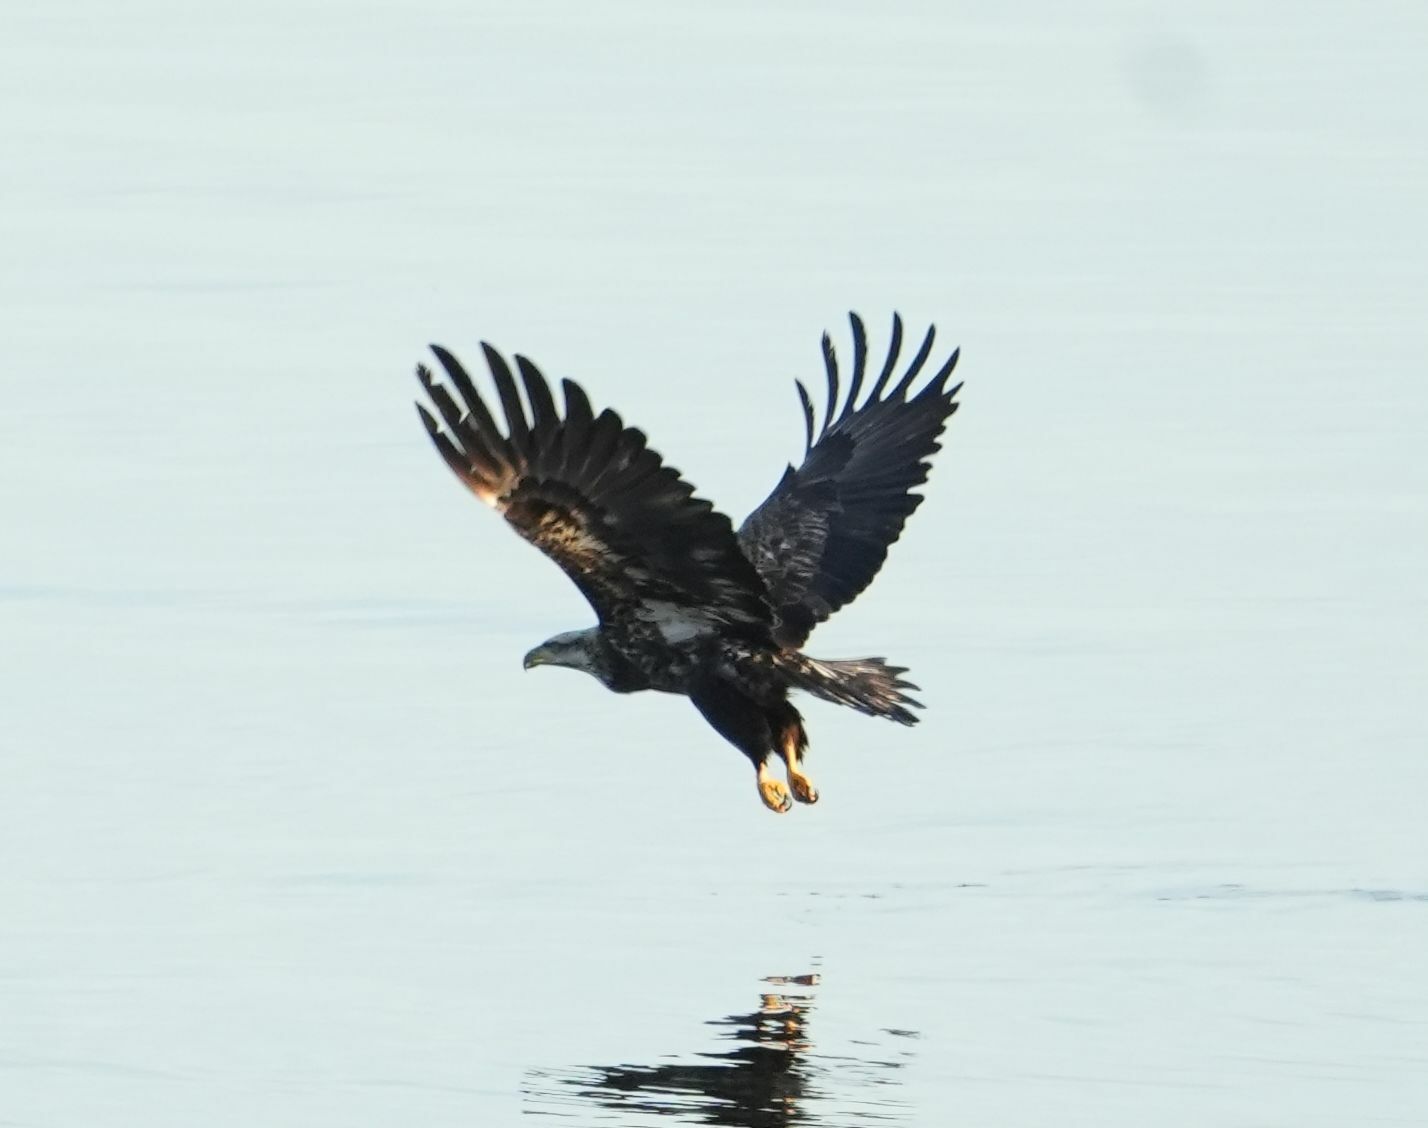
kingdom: Animalia
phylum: Chordata
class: Aves
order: Accipitriformes
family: Accipitridae
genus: Haliaeetus
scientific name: Haliaeetus leucocephalus
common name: Bald eagle
